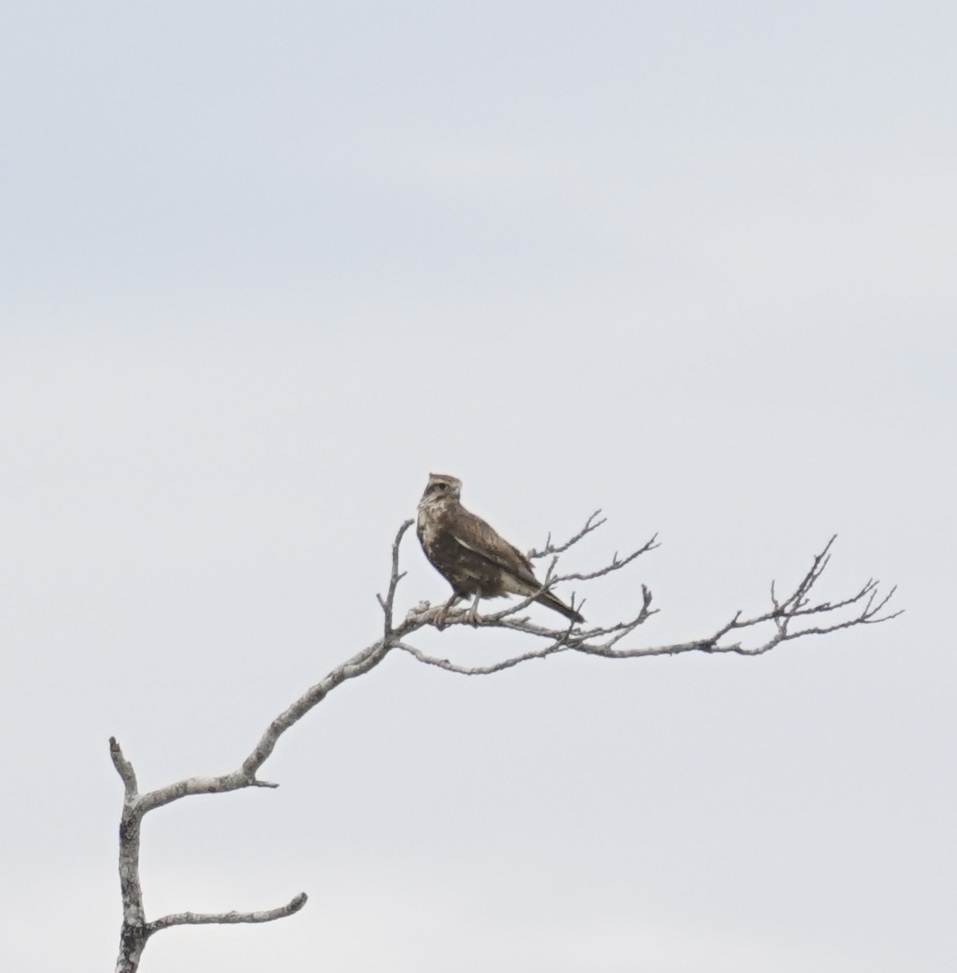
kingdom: Animalia
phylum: Chordata
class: Aves
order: Falconiformes
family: Falconidae
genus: Falco
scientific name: Falco berigora
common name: Brown falcon
